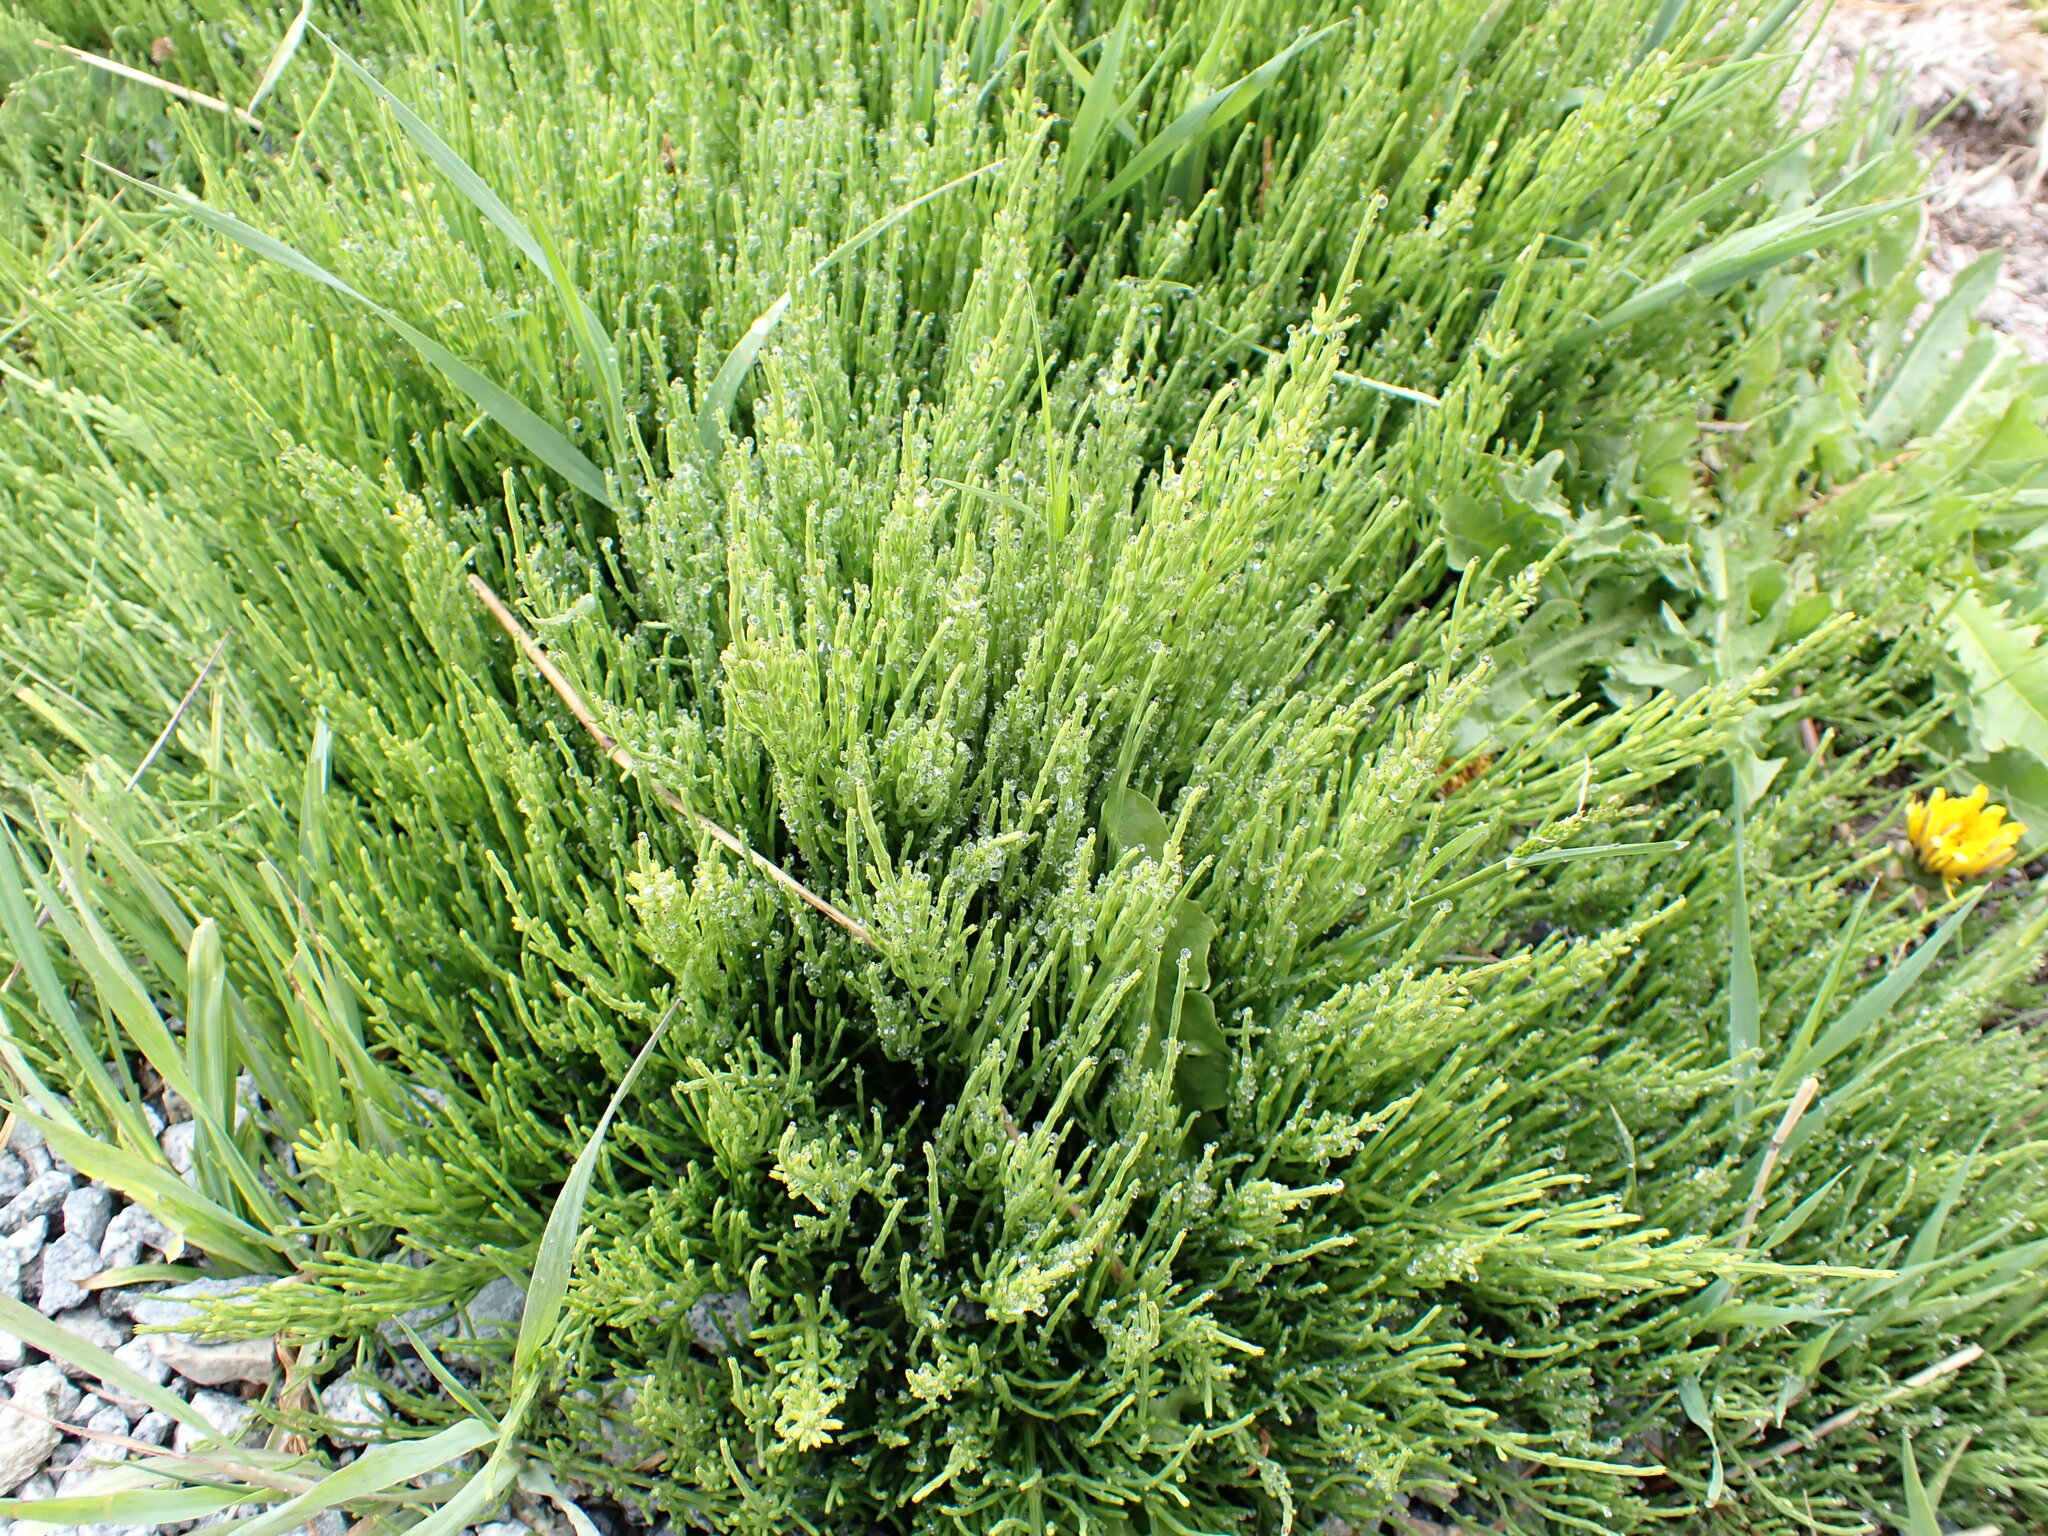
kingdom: Plantae
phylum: Tracheophyta
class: Polypodiopsida
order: Equisetales
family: Equisetaceae
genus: Equisetum
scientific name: Equisetum arvense
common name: Field horsetail
